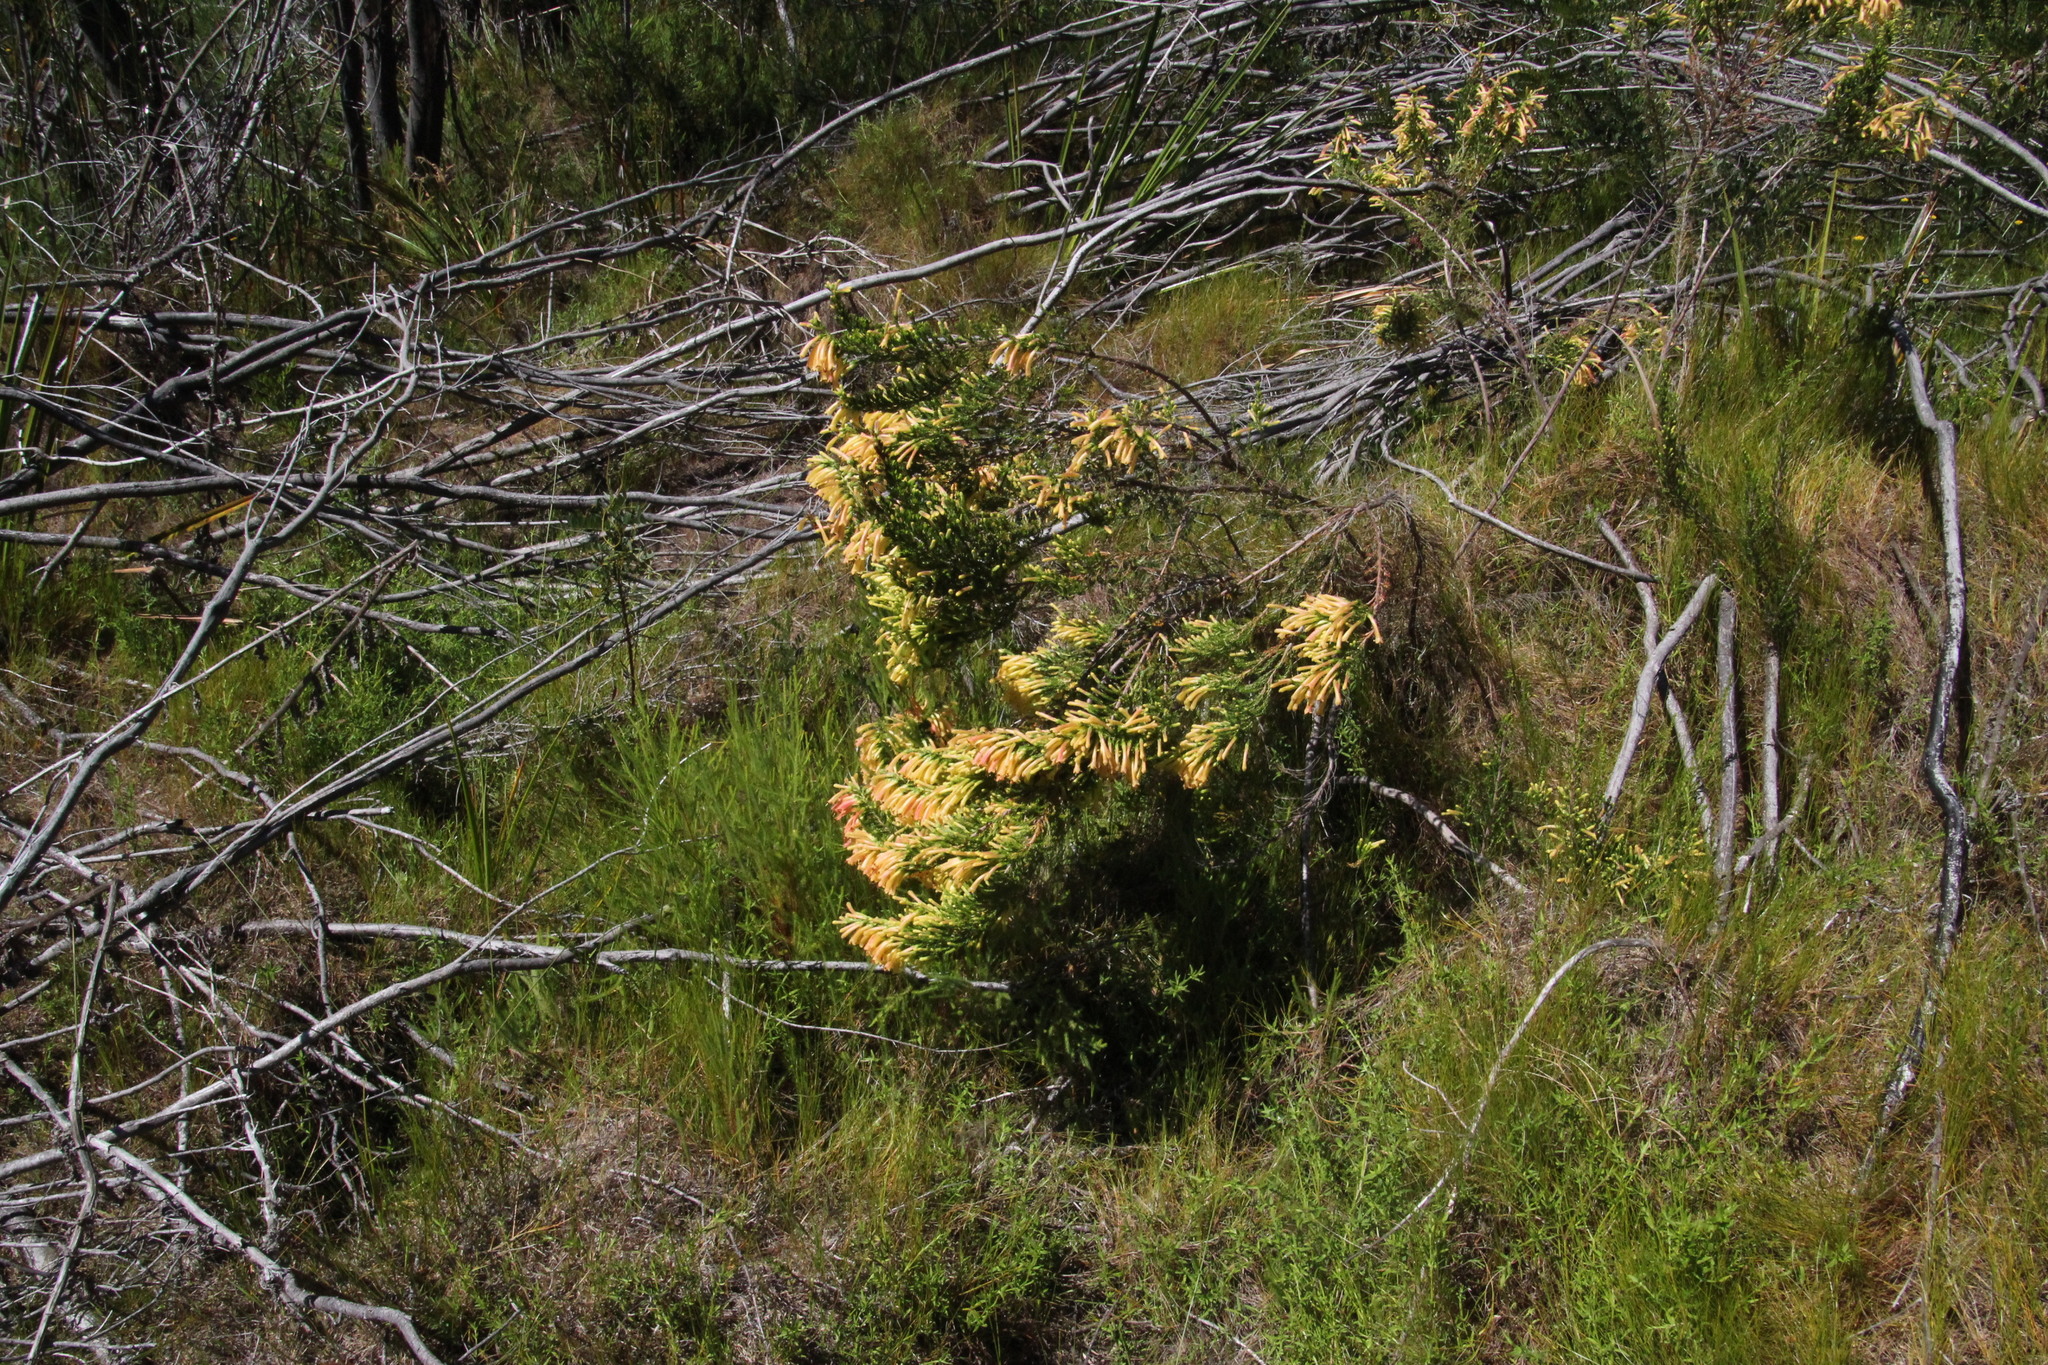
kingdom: Plantae
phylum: Tracheophyta
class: Magnoliopsida
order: Ericales
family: Ericaceae
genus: Erica
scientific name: Erica curviflora
